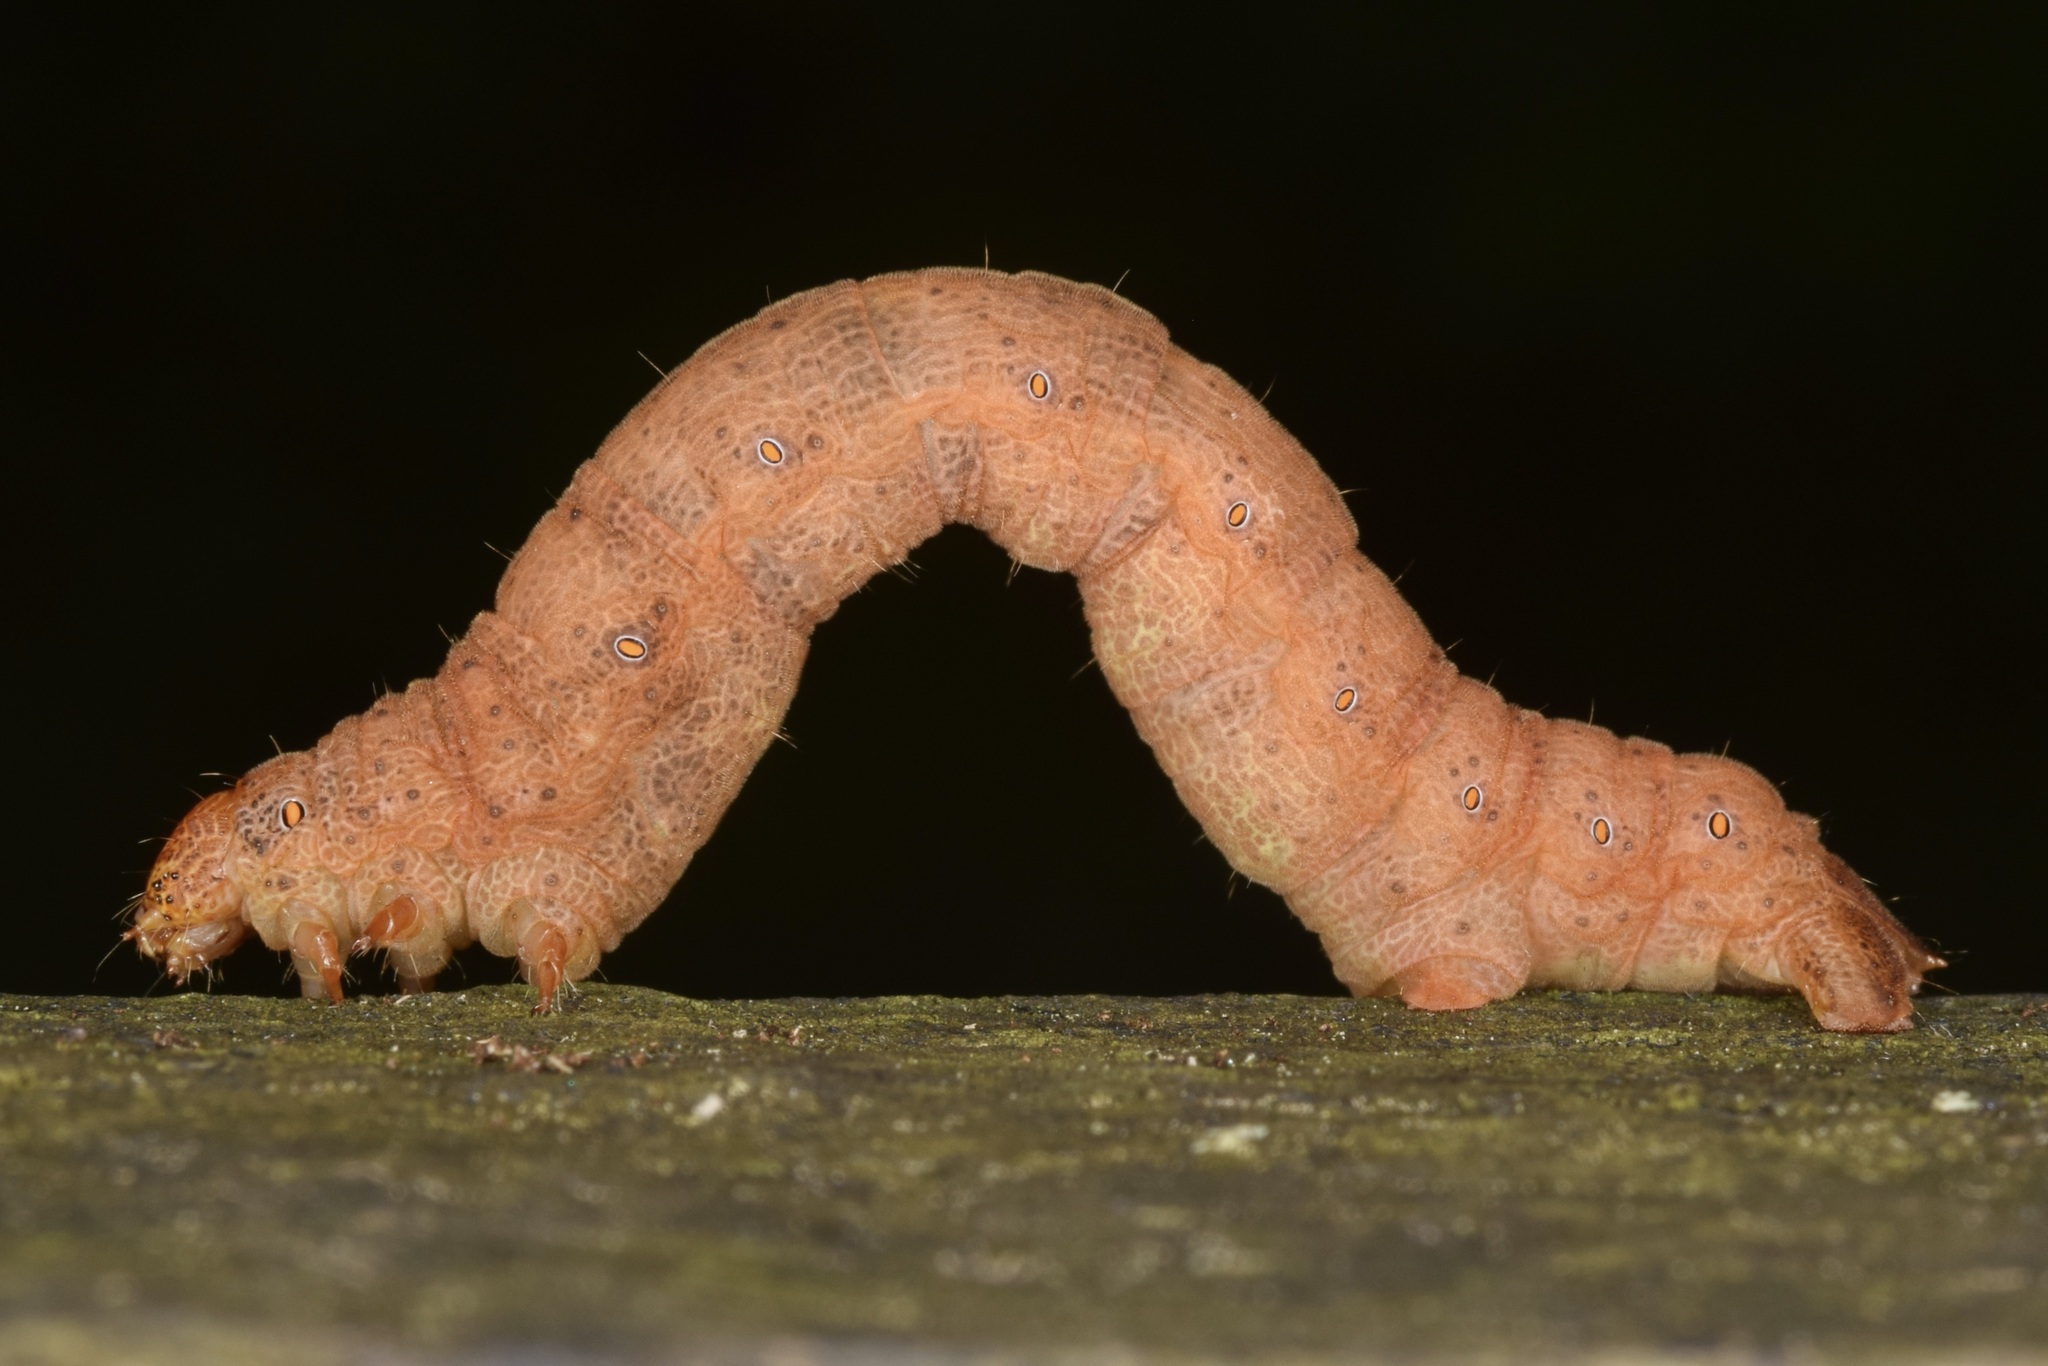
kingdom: Animalia
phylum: Arthropoda
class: Insecta
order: Lepidoptera
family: Geometridae
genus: Epimecis
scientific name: Epimecis hortaria
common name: Tulip-tree beauty
